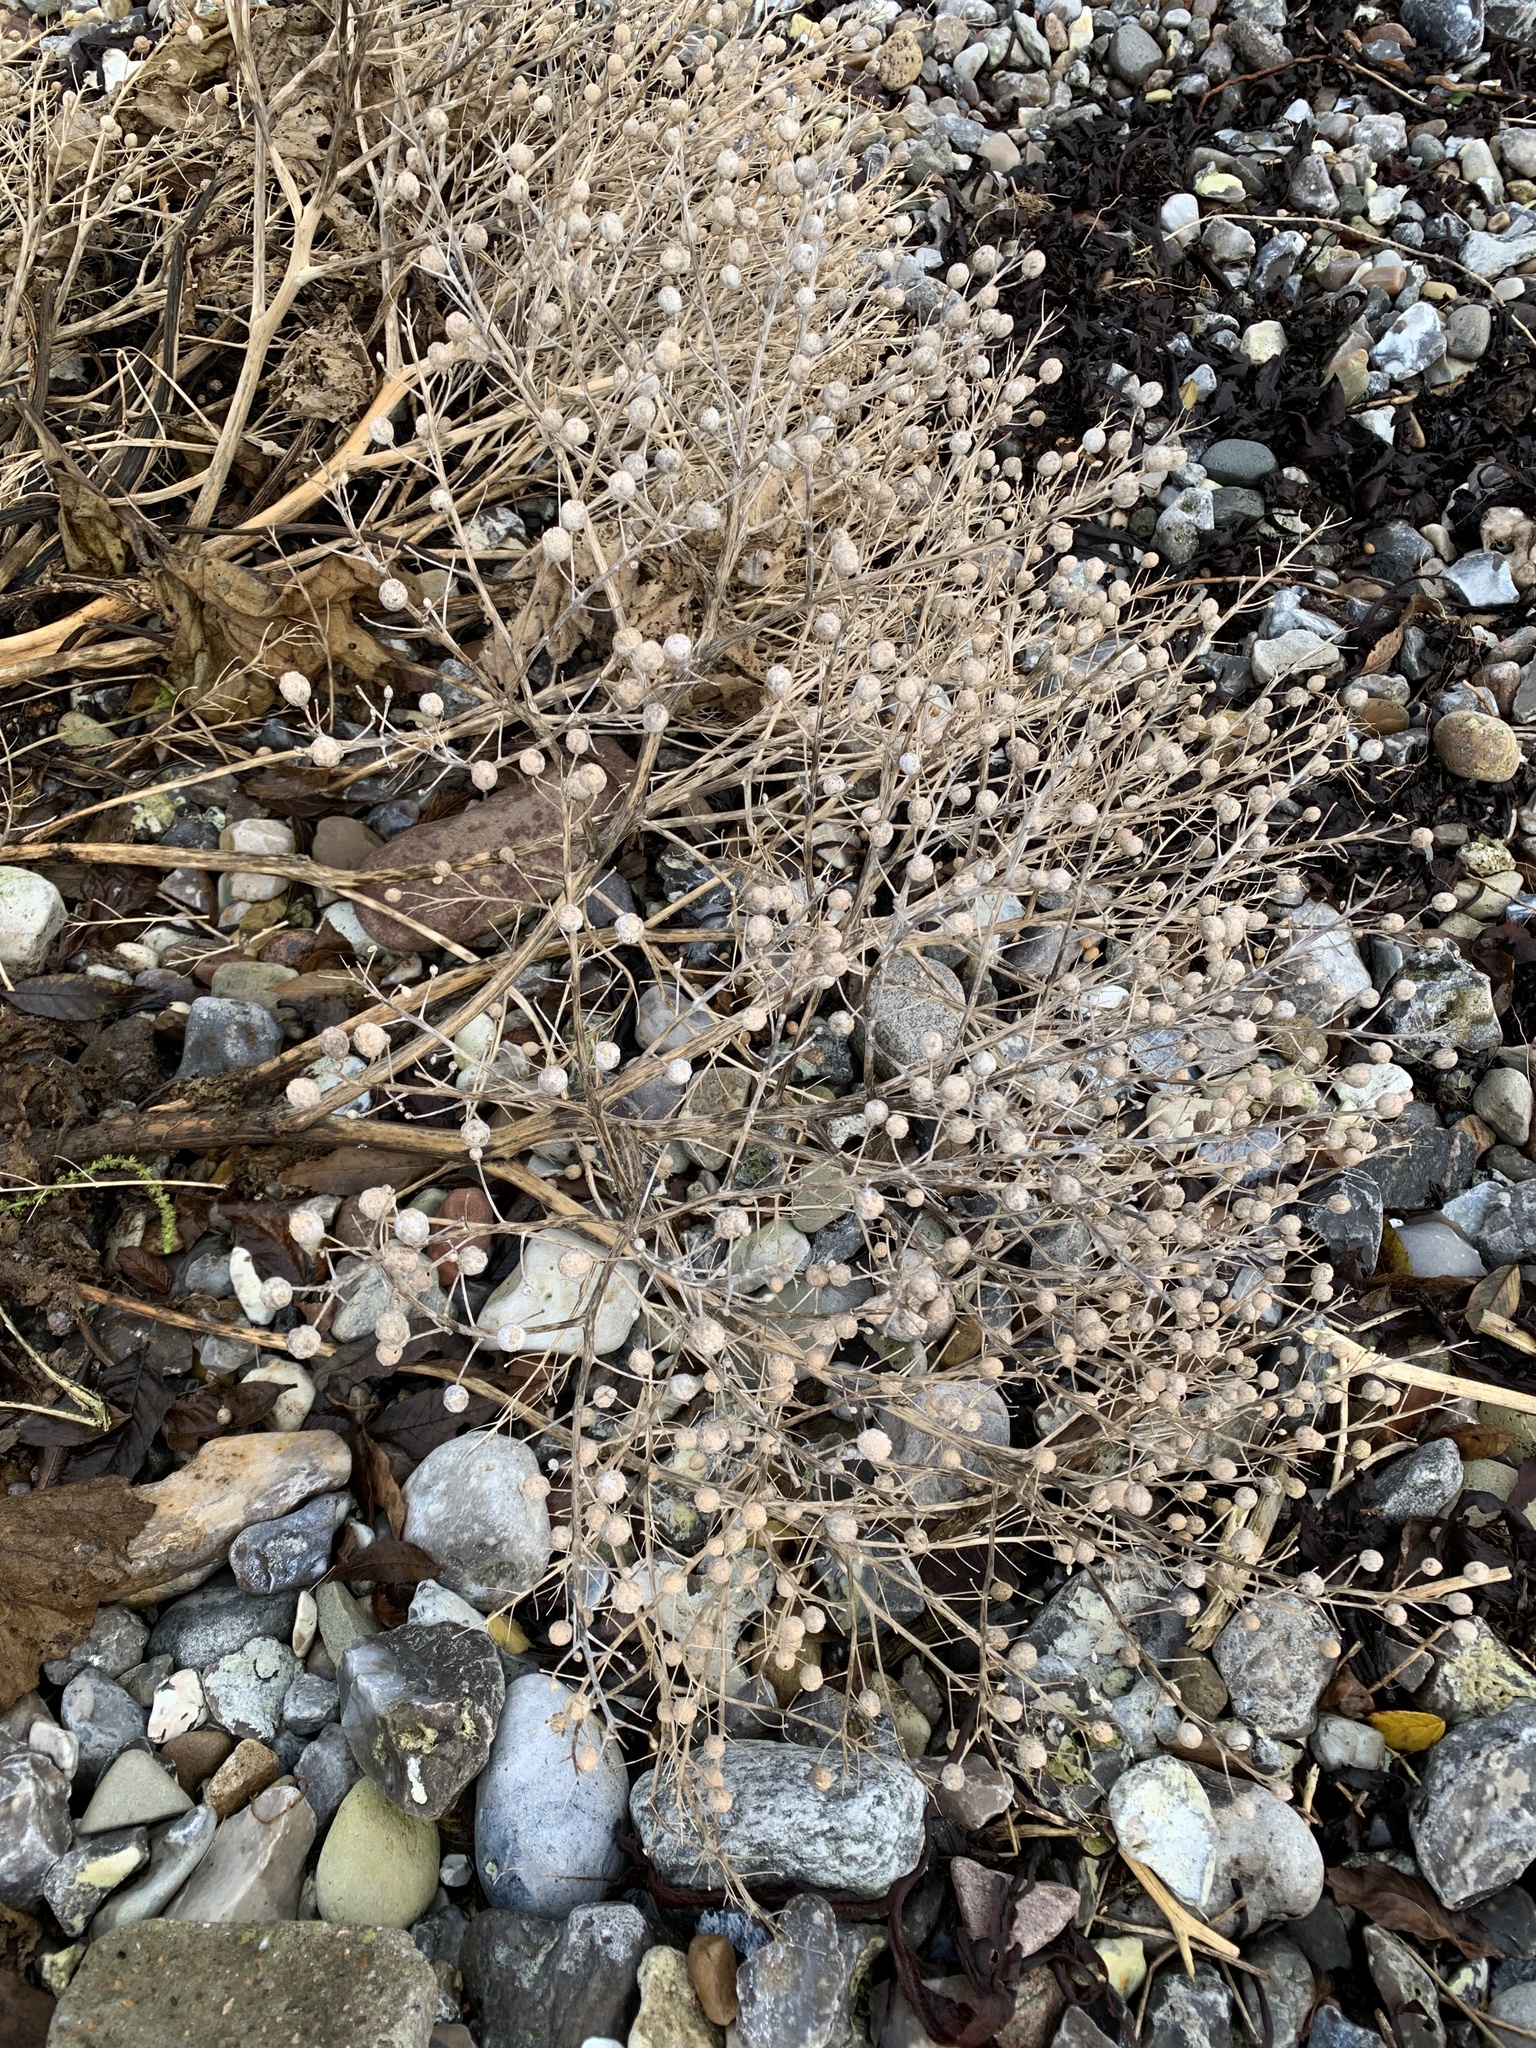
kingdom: Plantae
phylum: Tracheophyta
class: Magnoliopsida
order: Brassicales
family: Brassicaceae
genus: Crambe
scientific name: Crambe maritima
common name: Sea-kale
